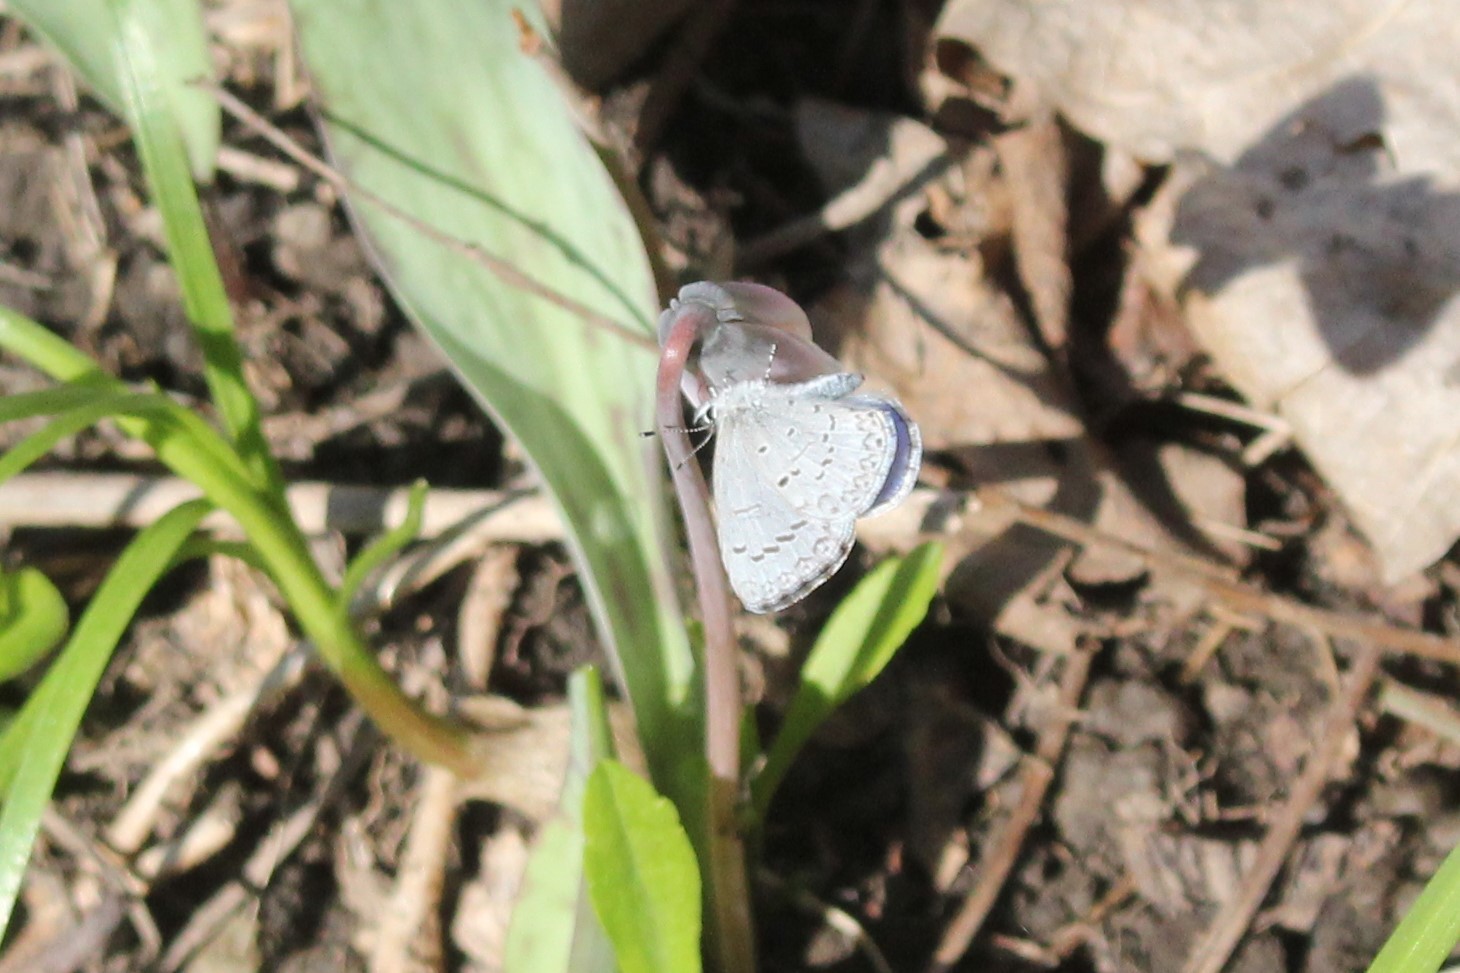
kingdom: Animalia
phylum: Arthropoda
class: Insecta
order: Lepidoptera
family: Lycaenidae
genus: Celastrina
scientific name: Celastrina lucia
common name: Lucia azure
